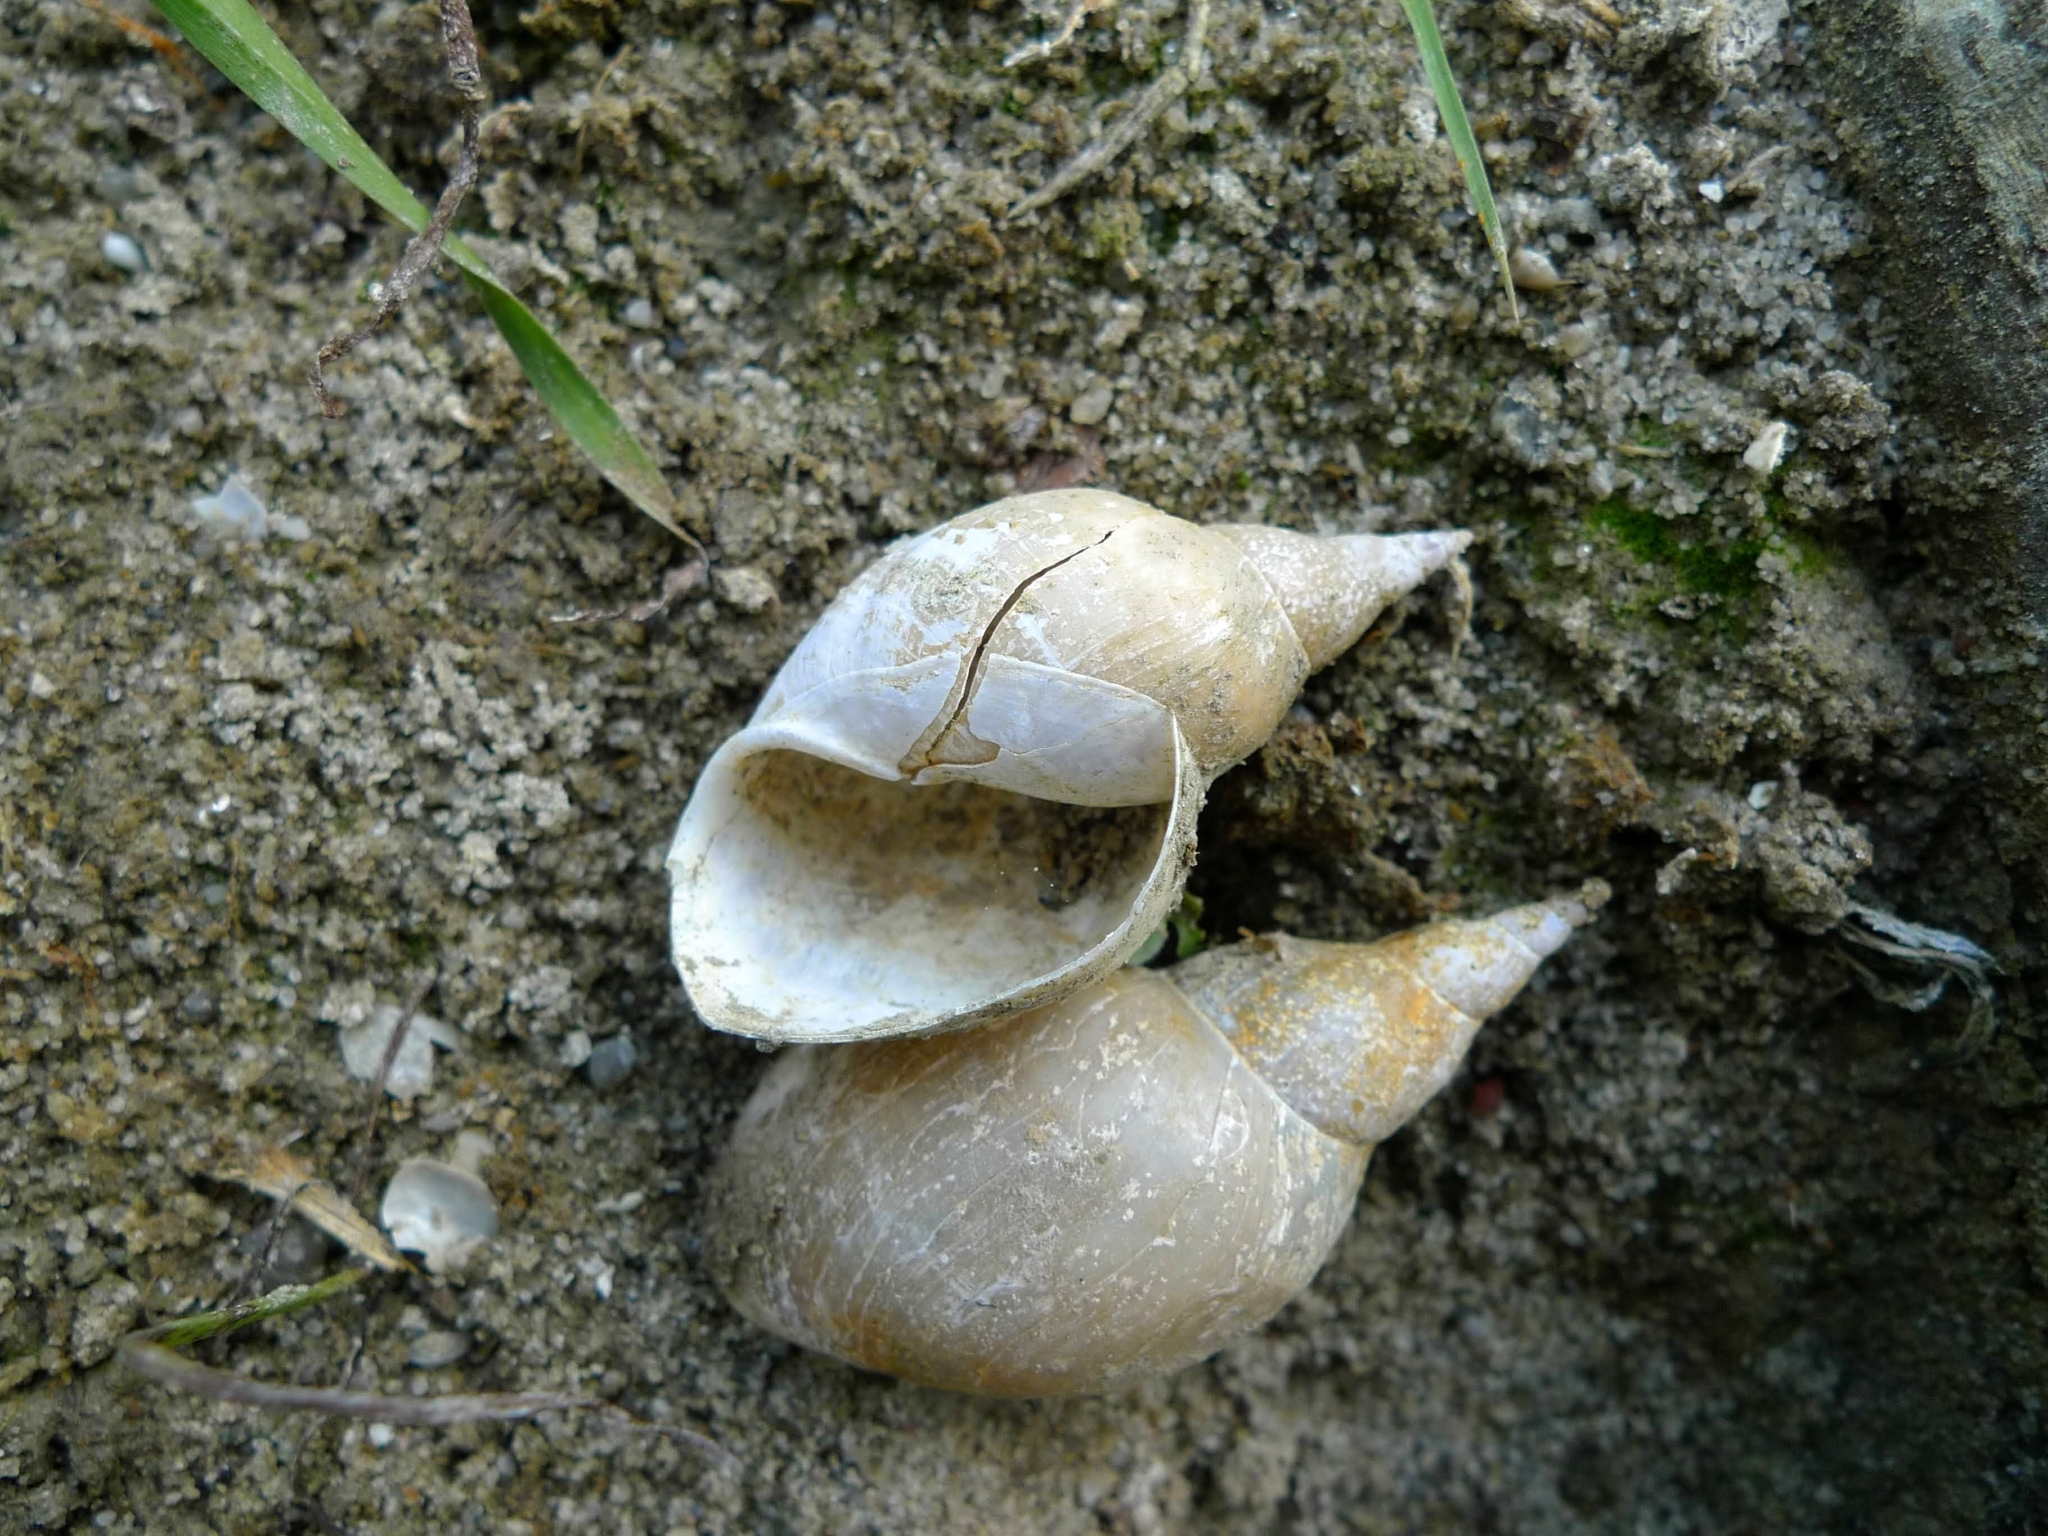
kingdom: Animalia
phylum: Mollusca
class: Gastropoda
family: Lymnaeidae
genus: Lymnaea
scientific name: Lymnaea stagnalis
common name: Great pond snail
